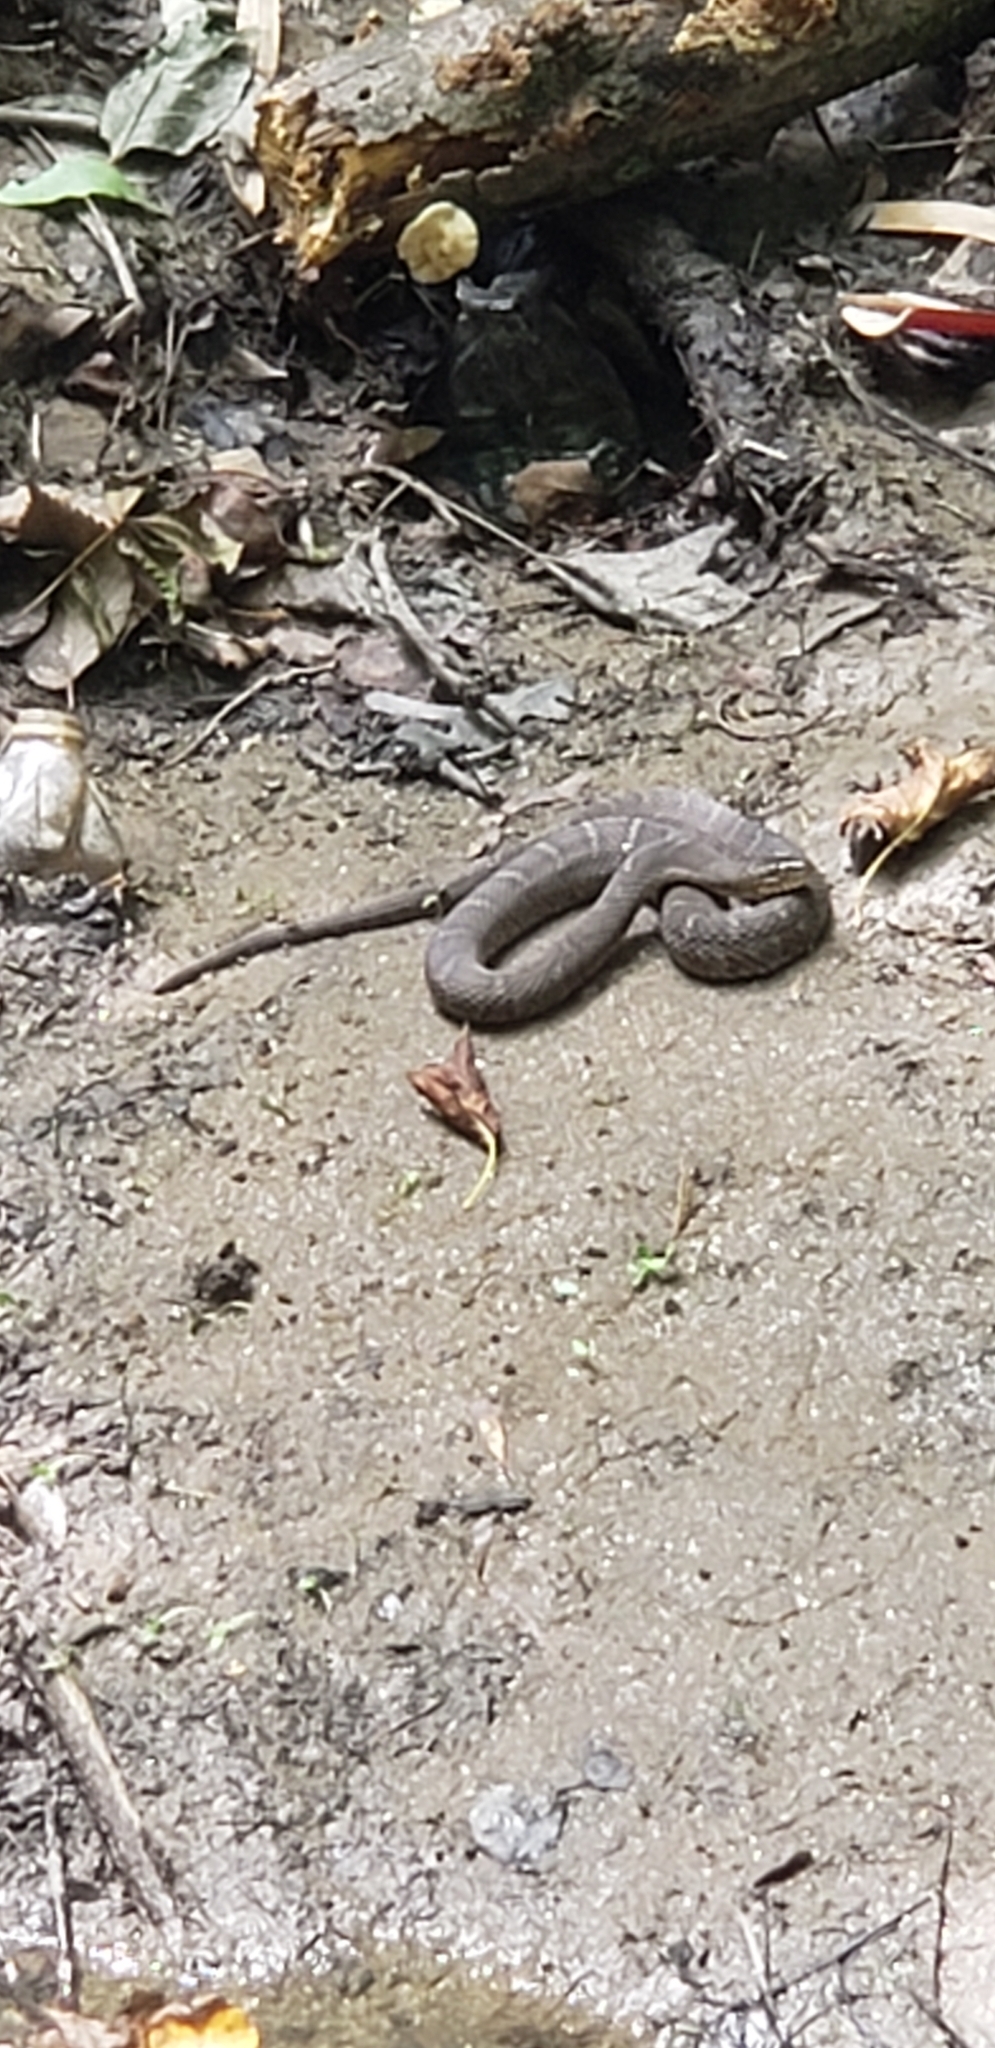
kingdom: Animalia
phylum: Chordata
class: Squamata
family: Colubridae
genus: Nerodia
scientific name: Nerodia sipedon
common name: Northern water snake
